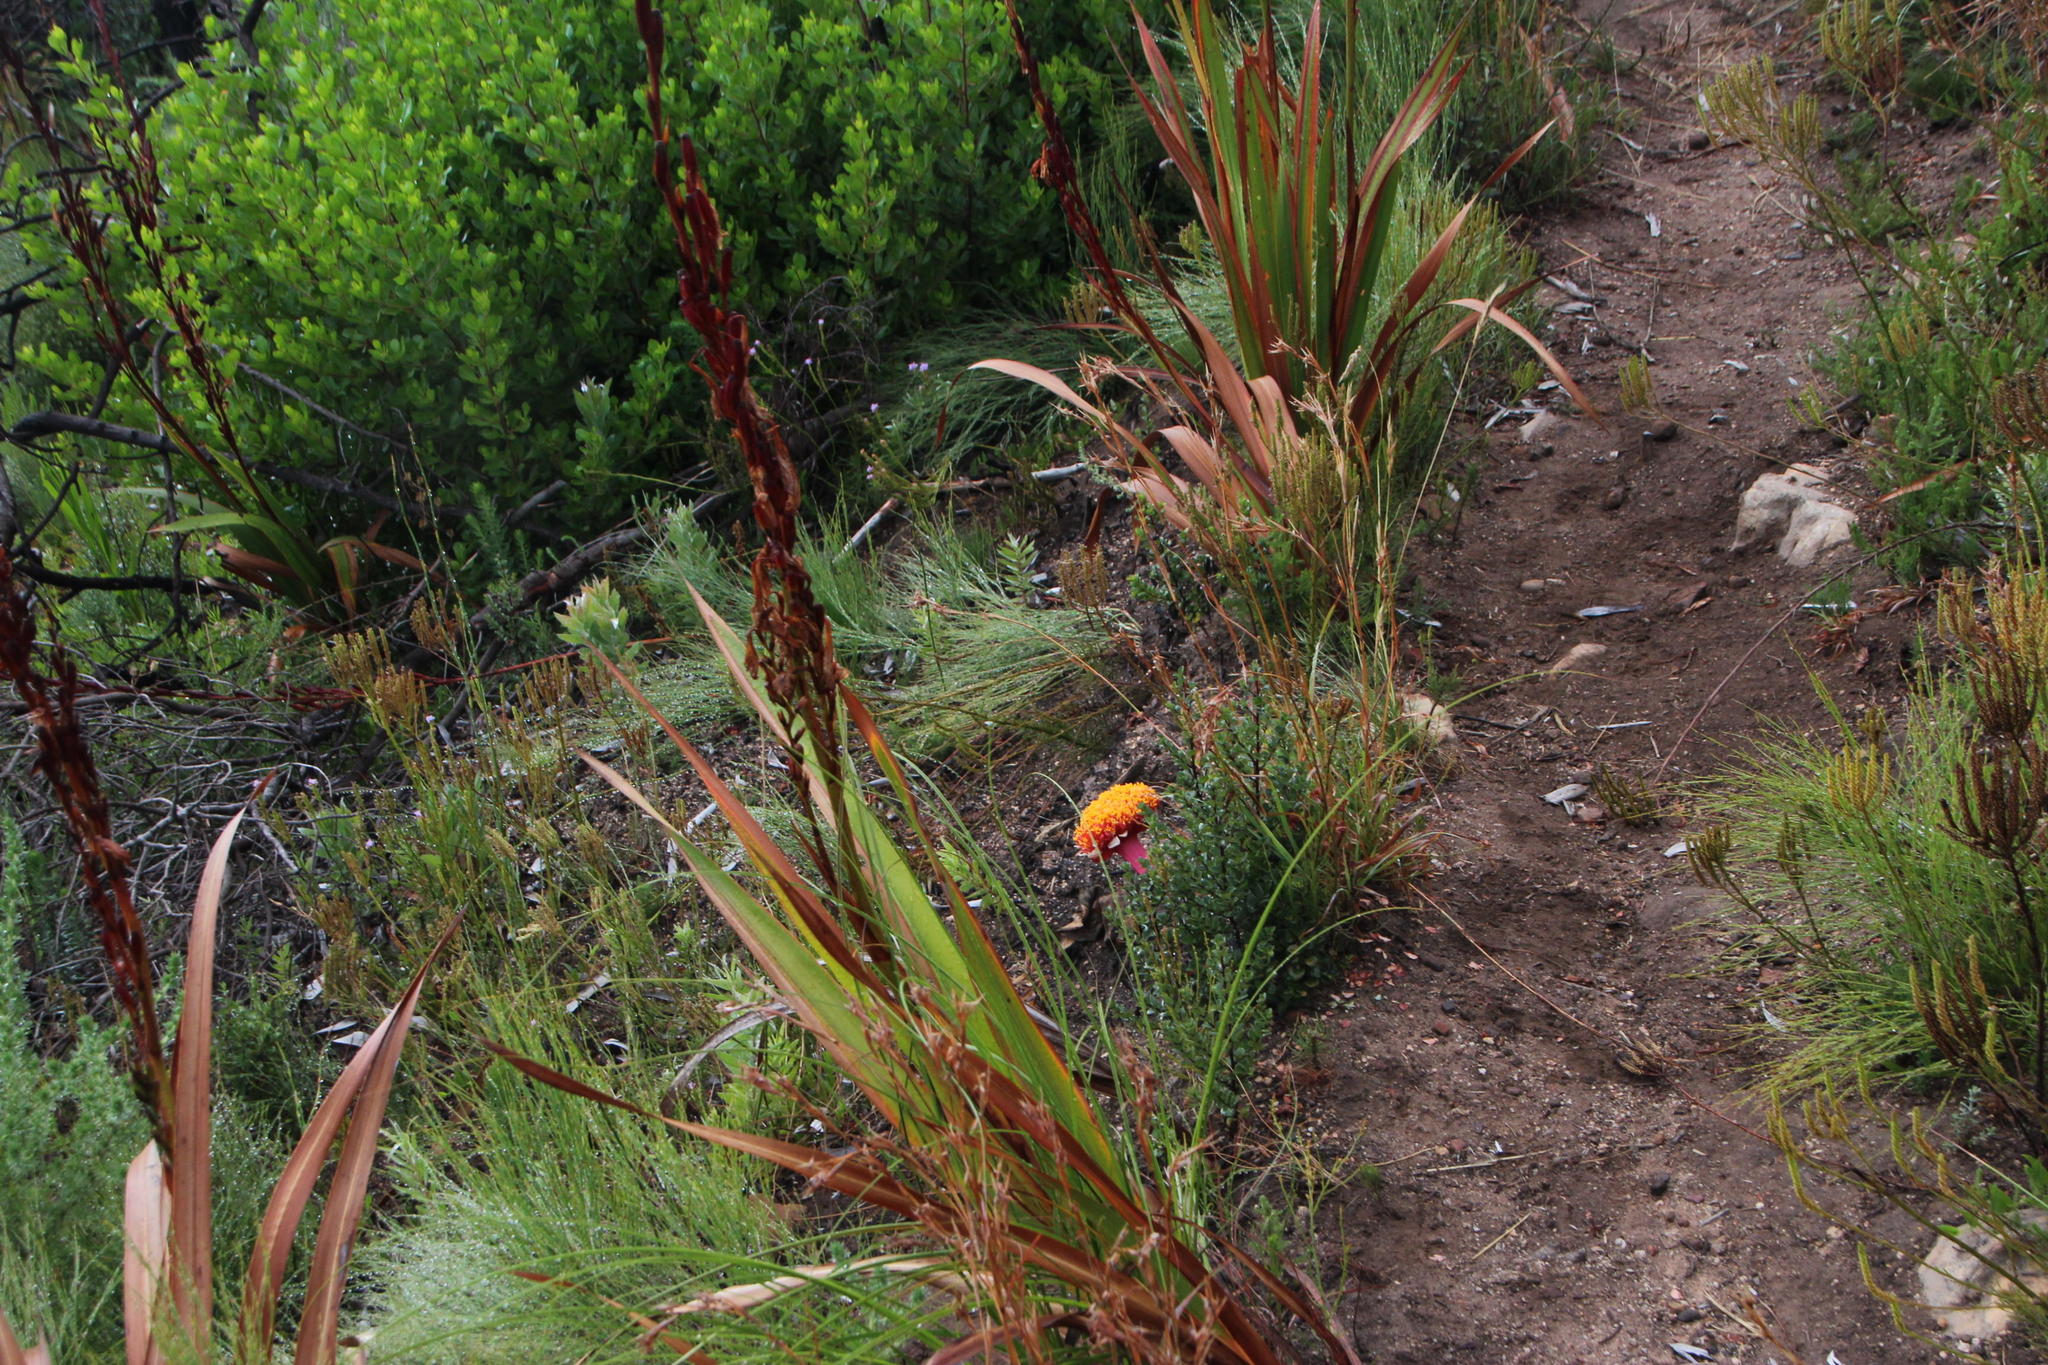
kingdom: Plantae
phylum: Tracheophyta
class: Liliopsida
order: Asparagales
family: Amaryllidaceae
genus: Haemanthus
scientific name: Haemanthus sanguineus
